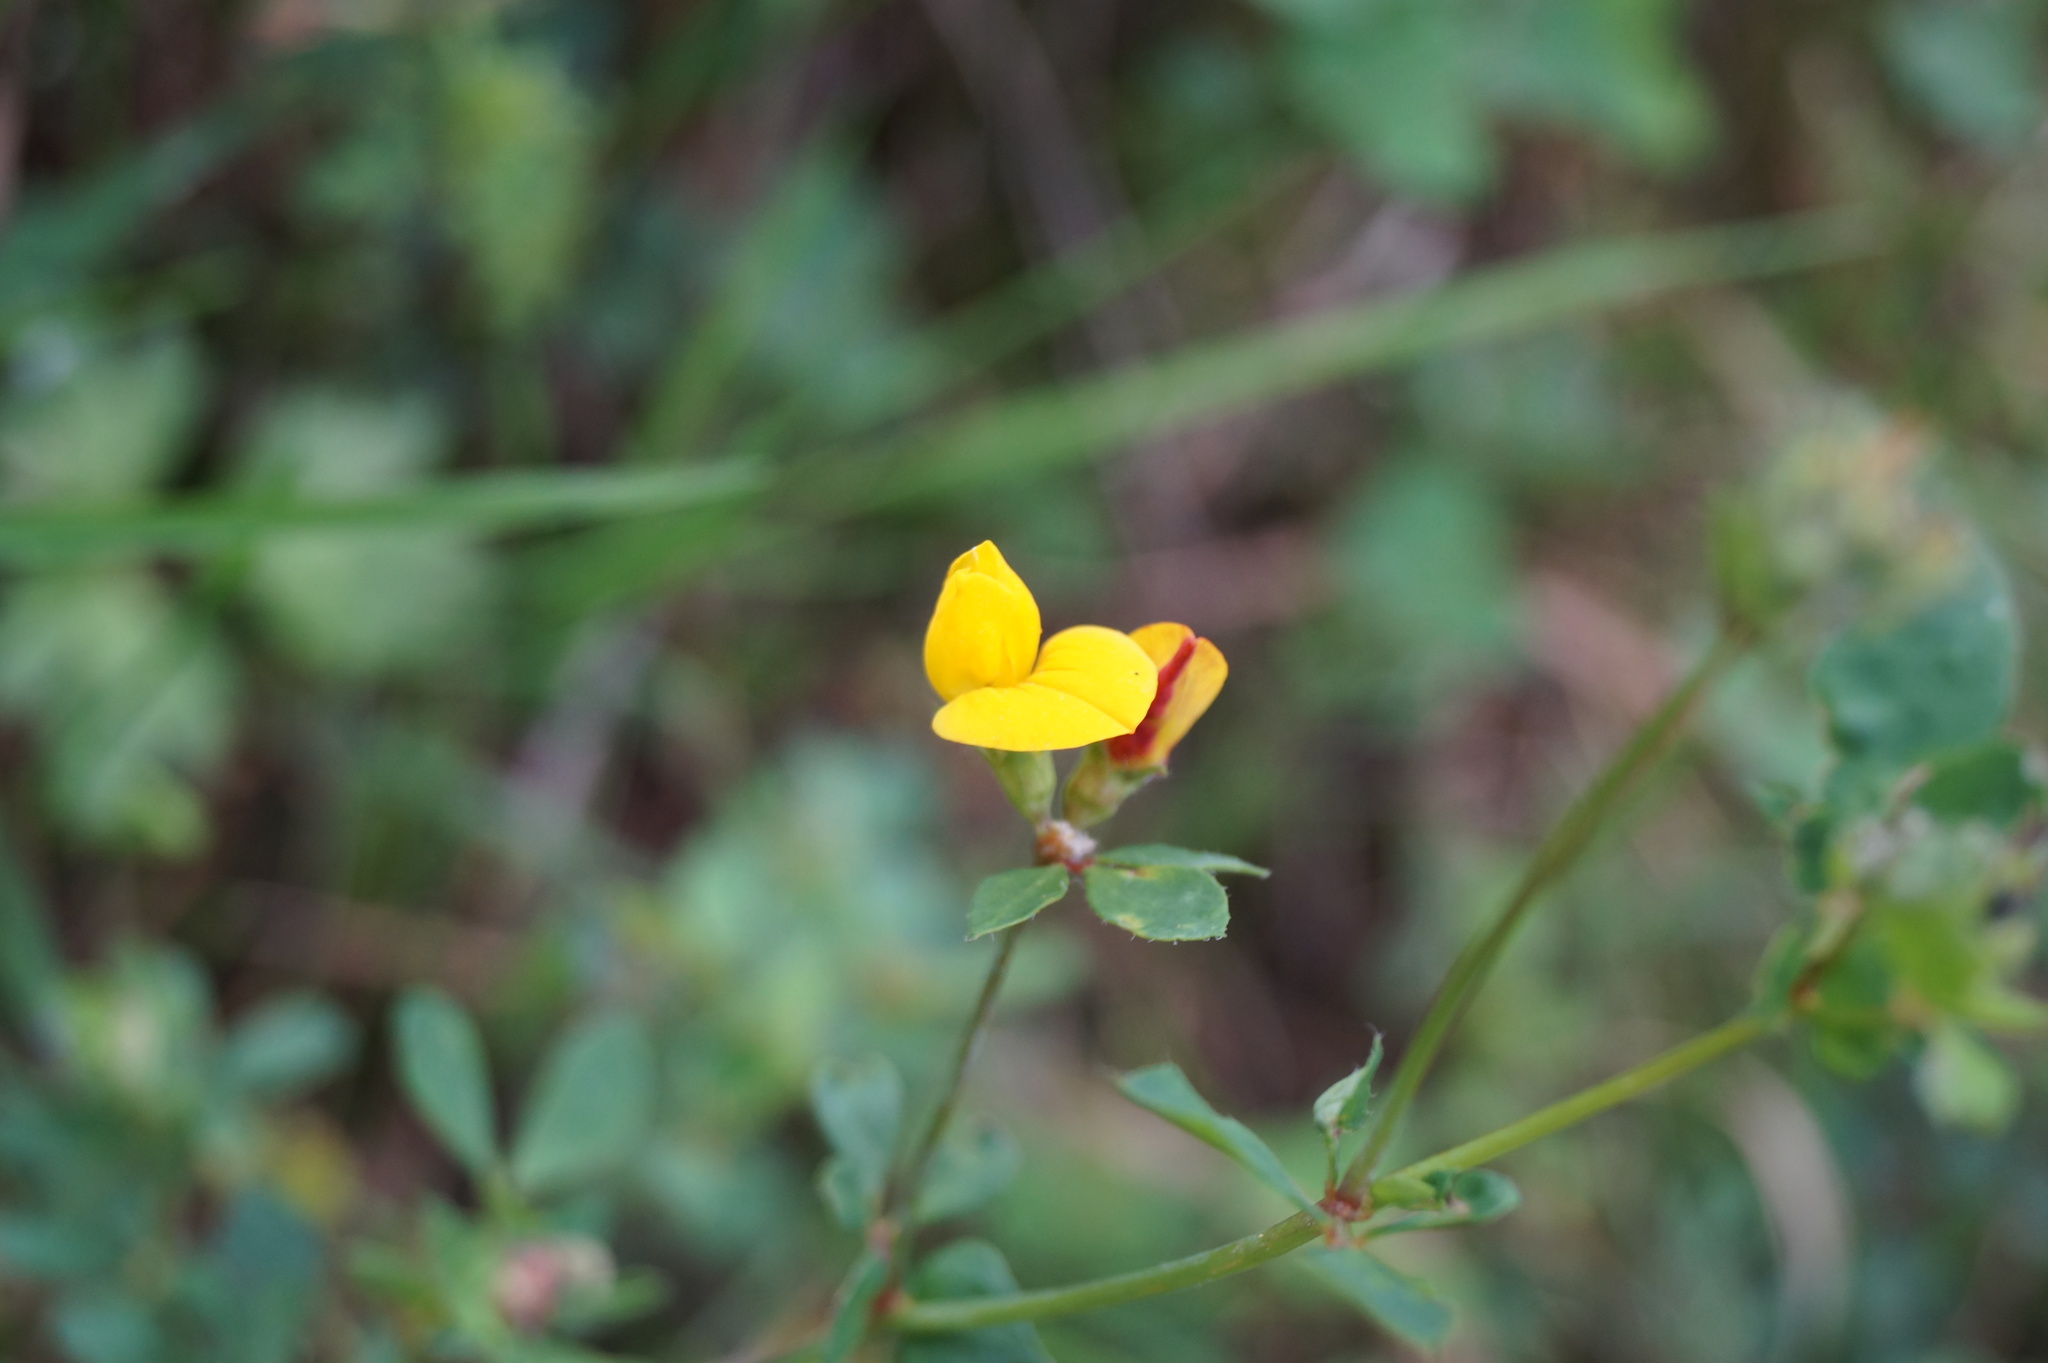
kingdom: Plantae
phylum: Tracheophyta
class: Magnoliopsida
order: Fabales
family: Fabaceae
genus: Lotus
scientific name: Lotus corniculatus
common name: Common bird's-foot-trefoil
